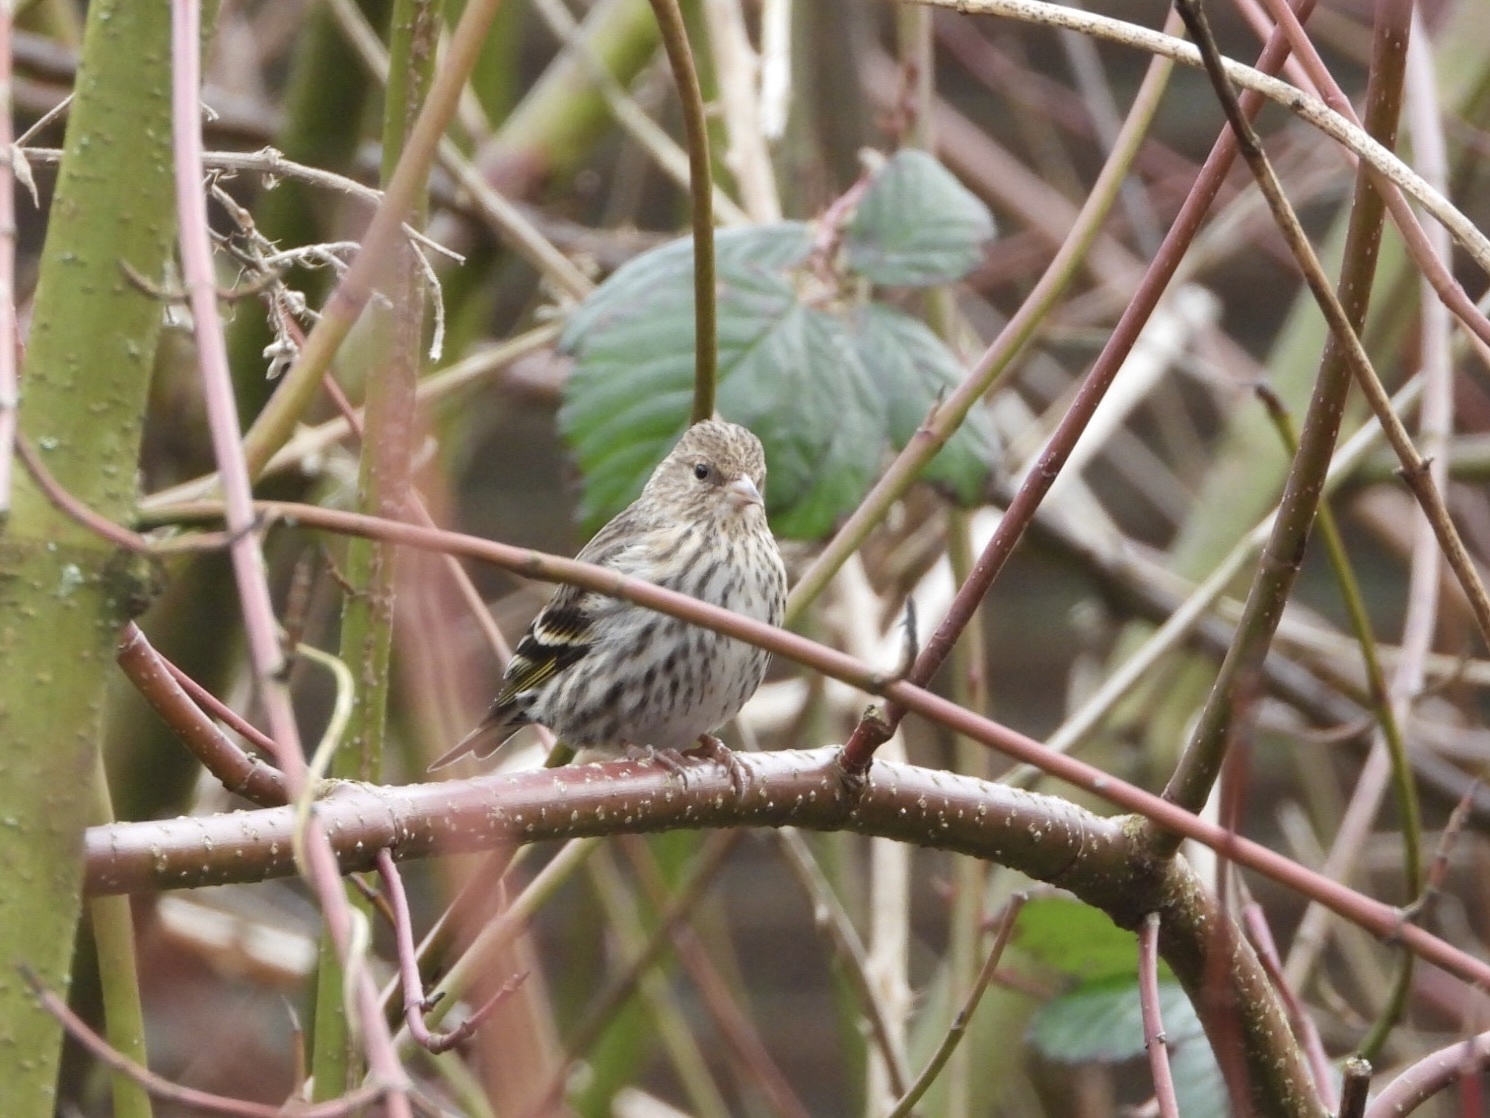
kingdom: Animalia
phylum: Chordata
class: Aves
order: Passeriformes
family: Fringillidae
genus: Spinus
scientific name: Spinus pinus
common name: Pine siskin
